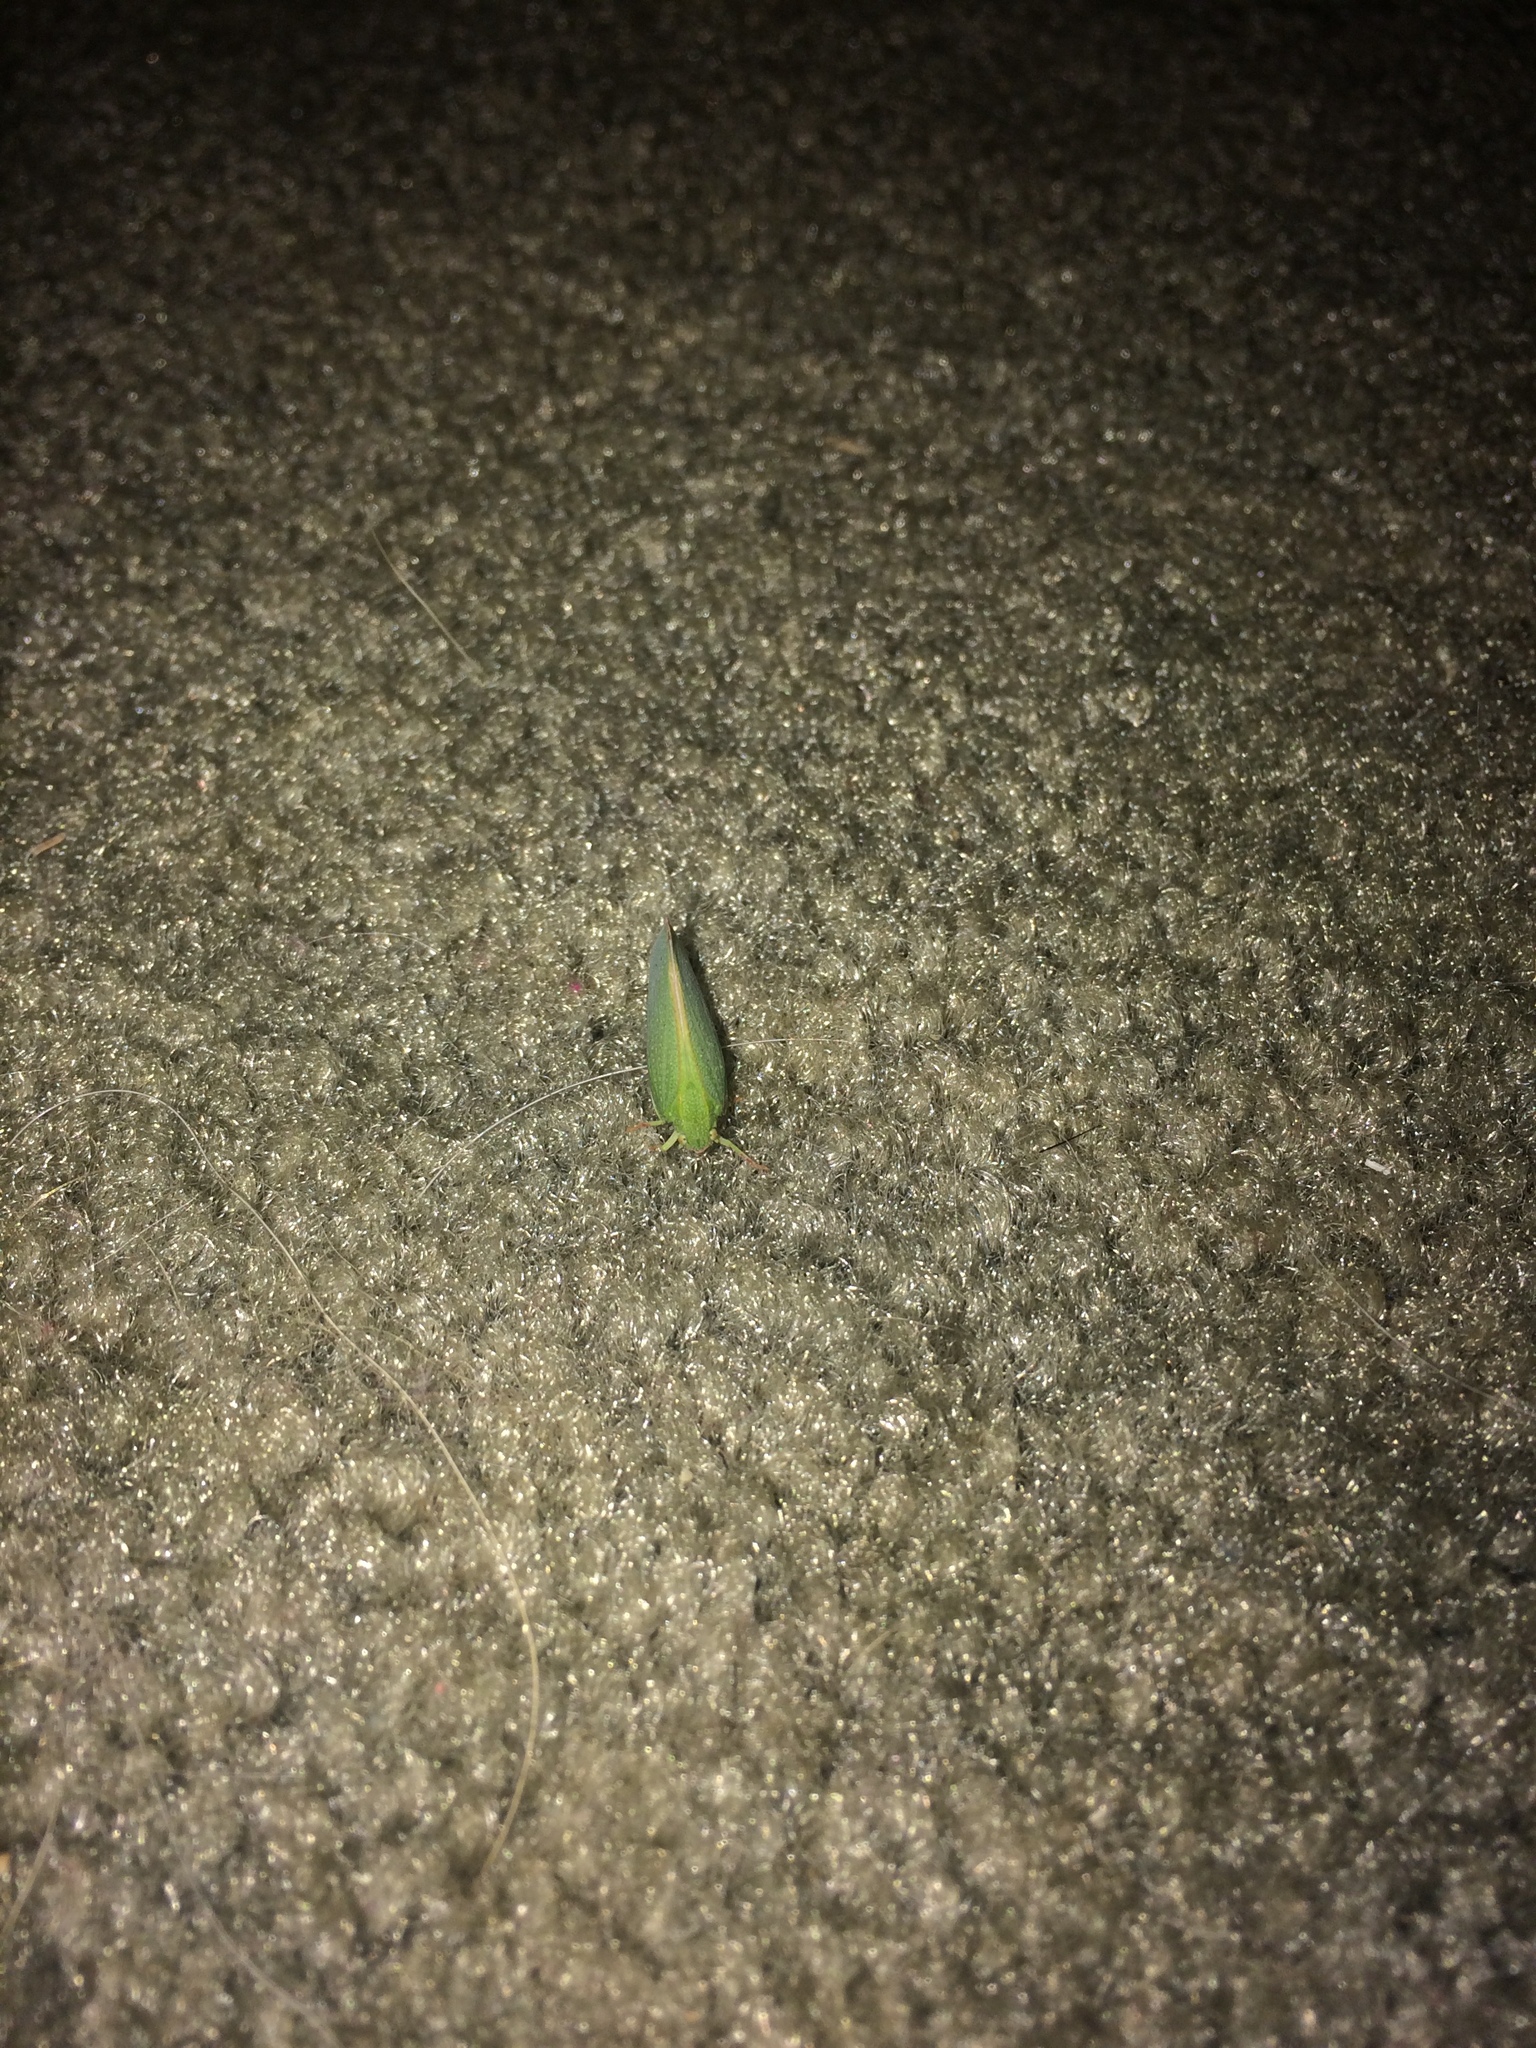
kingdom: Animalia
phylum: Arthropoda
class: Insecta
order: Hemiptera
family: Flatidae
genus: Siphanta
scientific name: Siphanta acuta
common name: Torpedo bug
